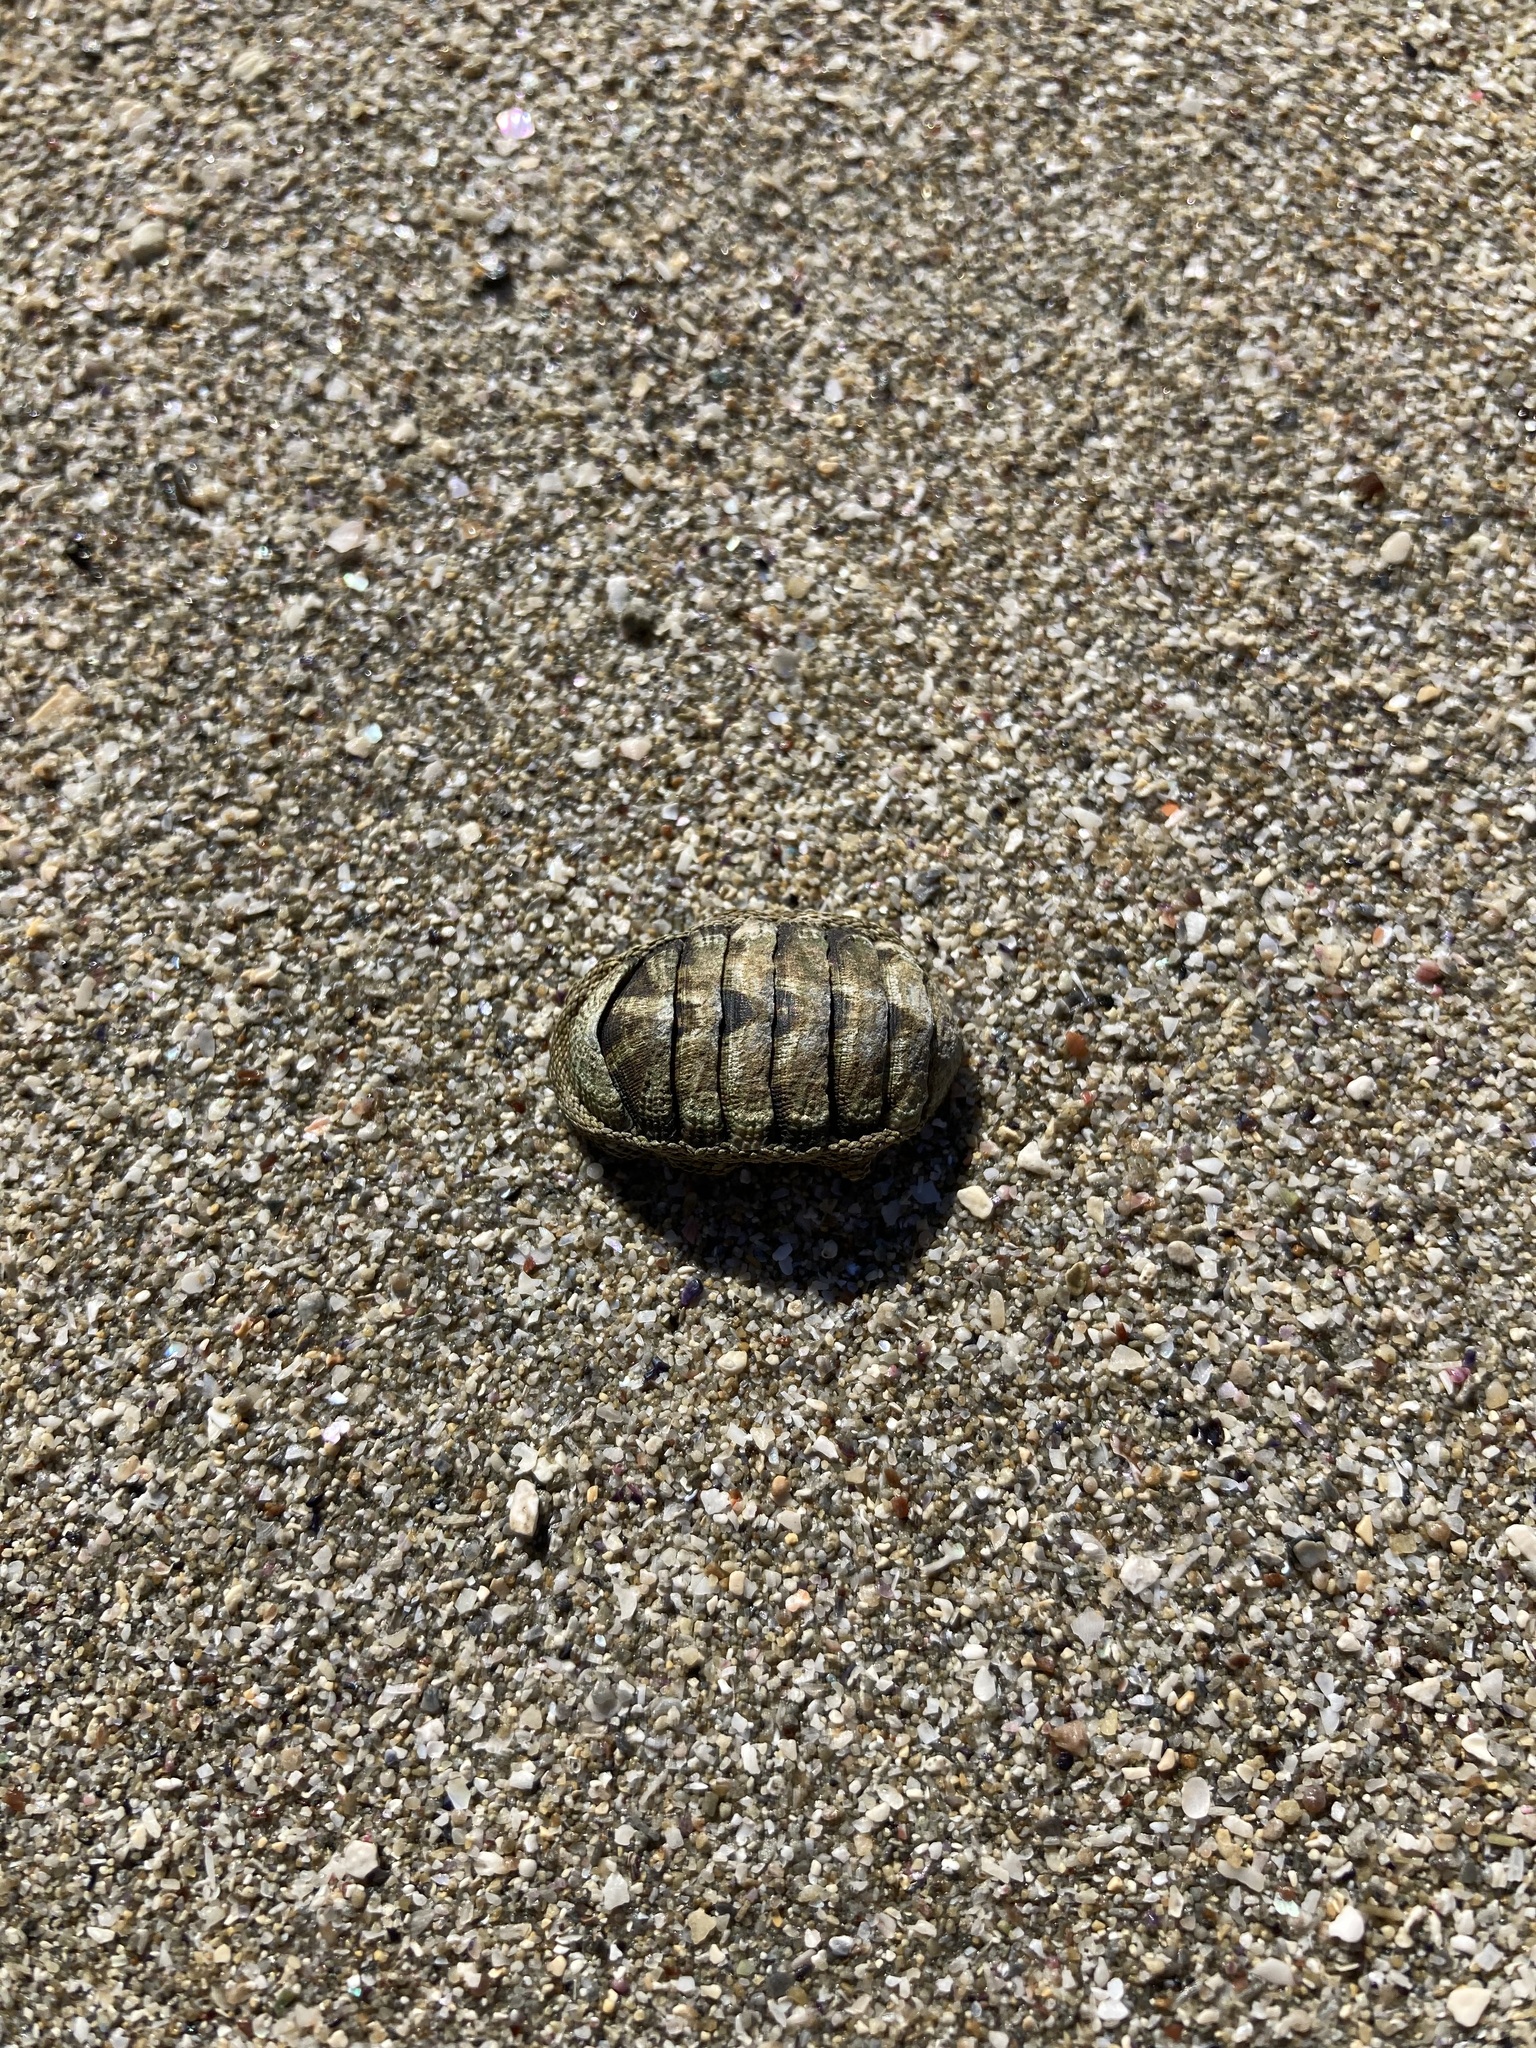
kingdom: Animalia
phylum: Mollusca
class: Polyplacophora
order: Chitonida
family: Chitonidae
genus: Sypharochiton
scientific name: Sypharochiton pelliserpentis
